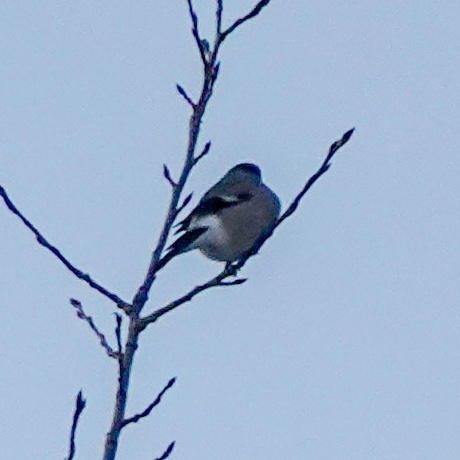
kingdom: Animalia
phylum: Chordata
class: Aves
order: Passeriformes
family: Fringillidae
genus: Pyrrhula
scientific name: Pyrrhula pyrrhula
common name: Eurasian bullfinch
